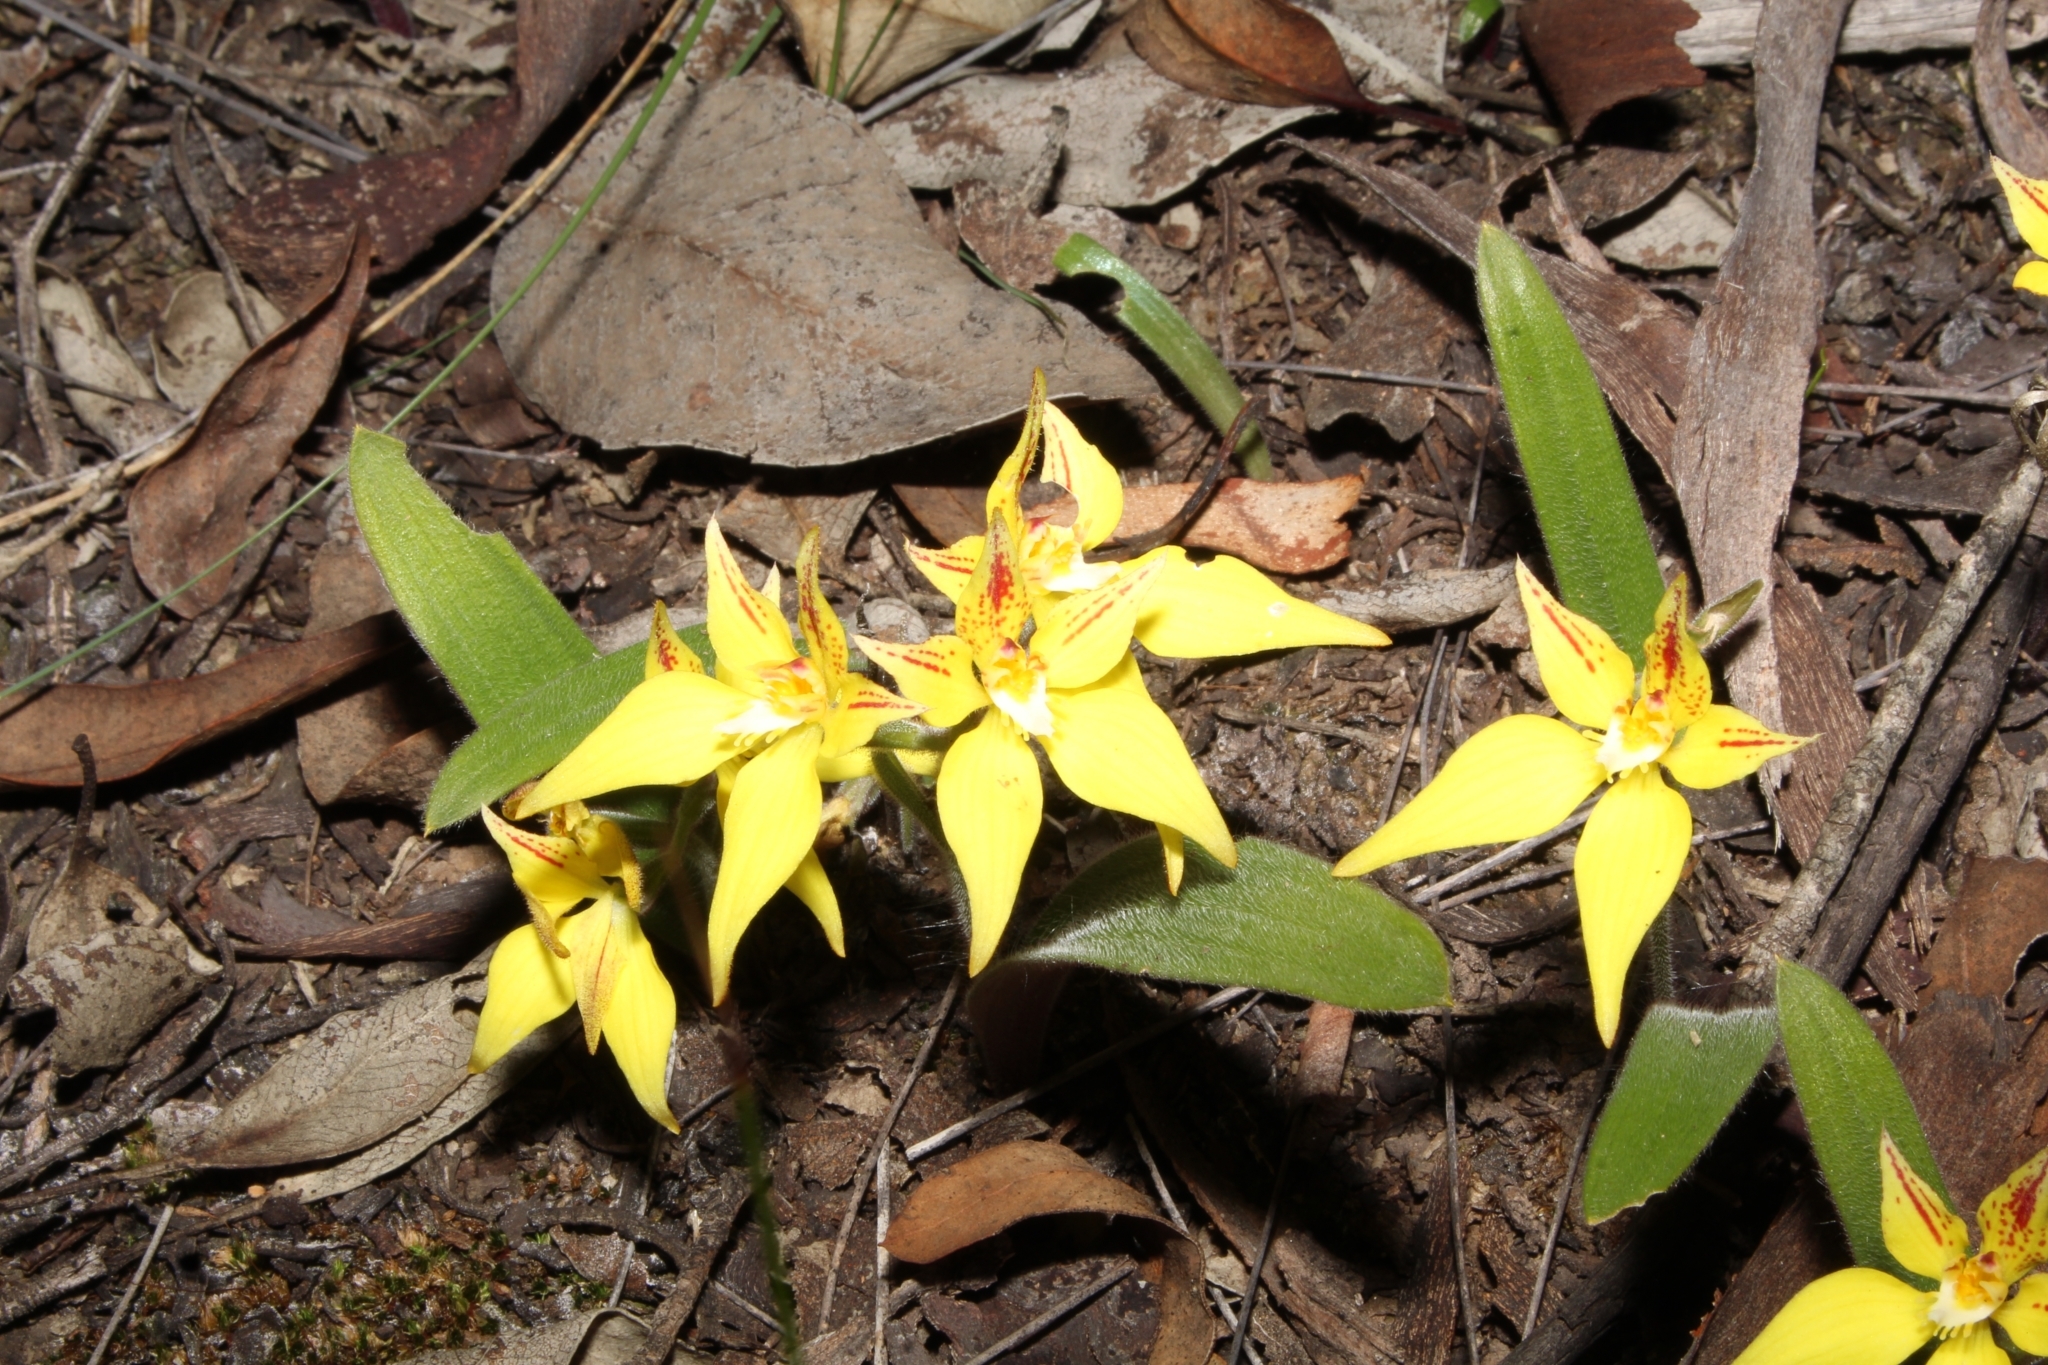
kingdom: Plantae
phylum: Tracheophyta
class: Liliopsida
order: Asparagales
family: Orchidaceae
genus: Caladenia
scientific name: Caladenia flava
